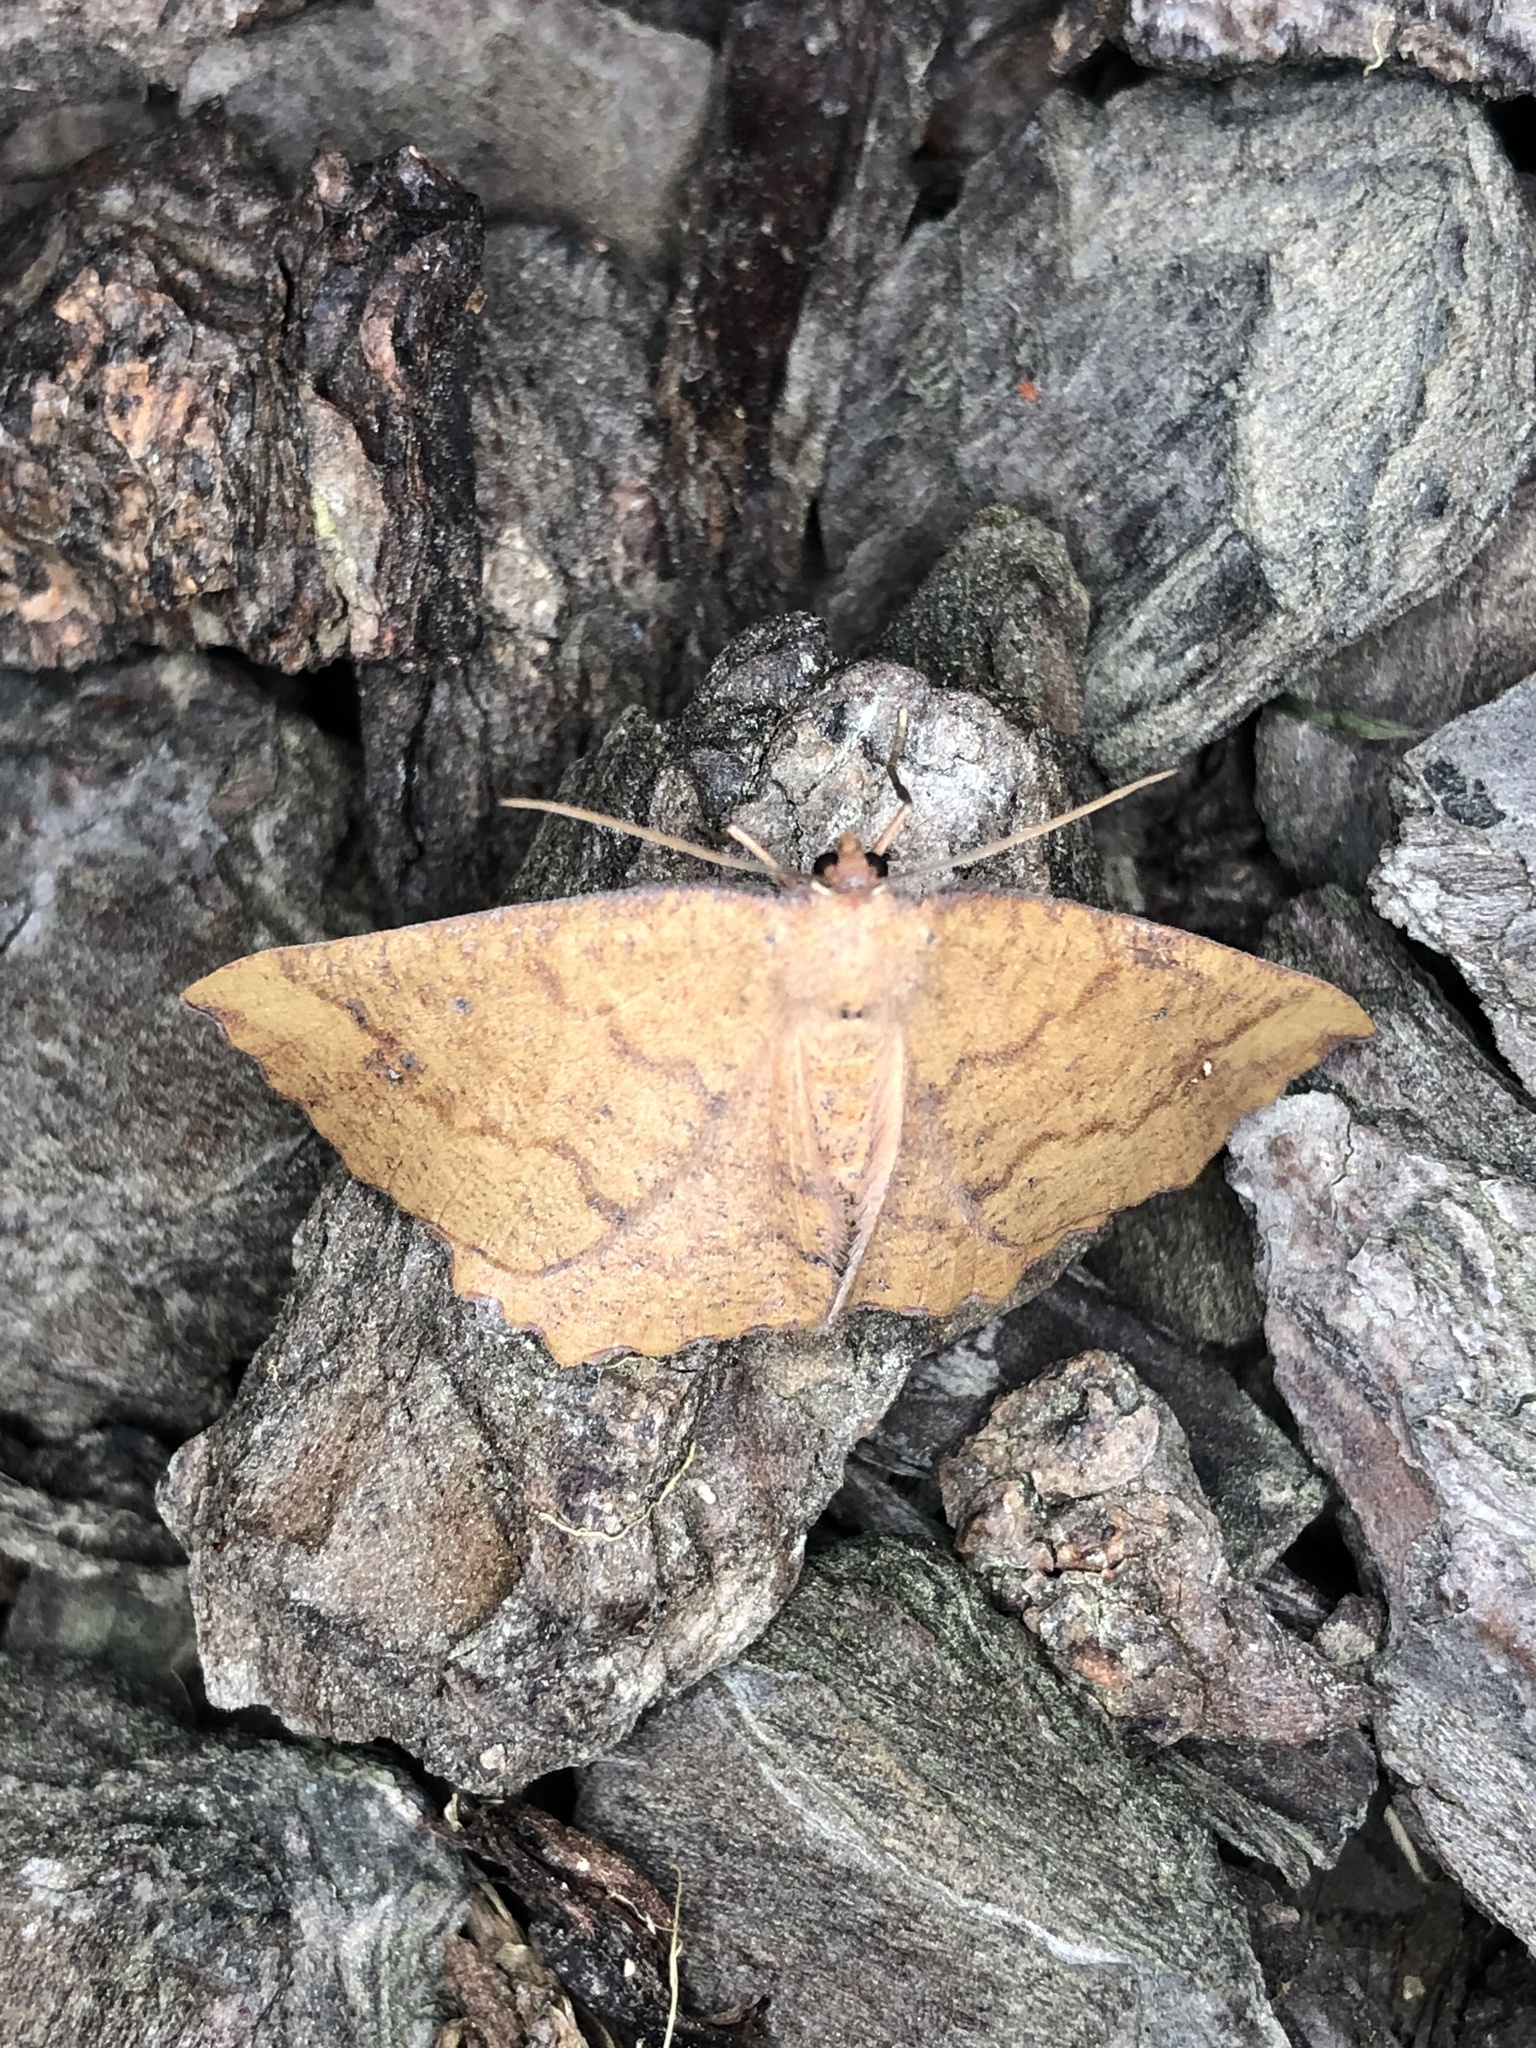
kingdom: Animalia
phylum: Arthropoda
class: Insecta
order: Lepidoptera
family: Geometridae
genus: Xyridacma
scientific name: Xyridacma ustaria
